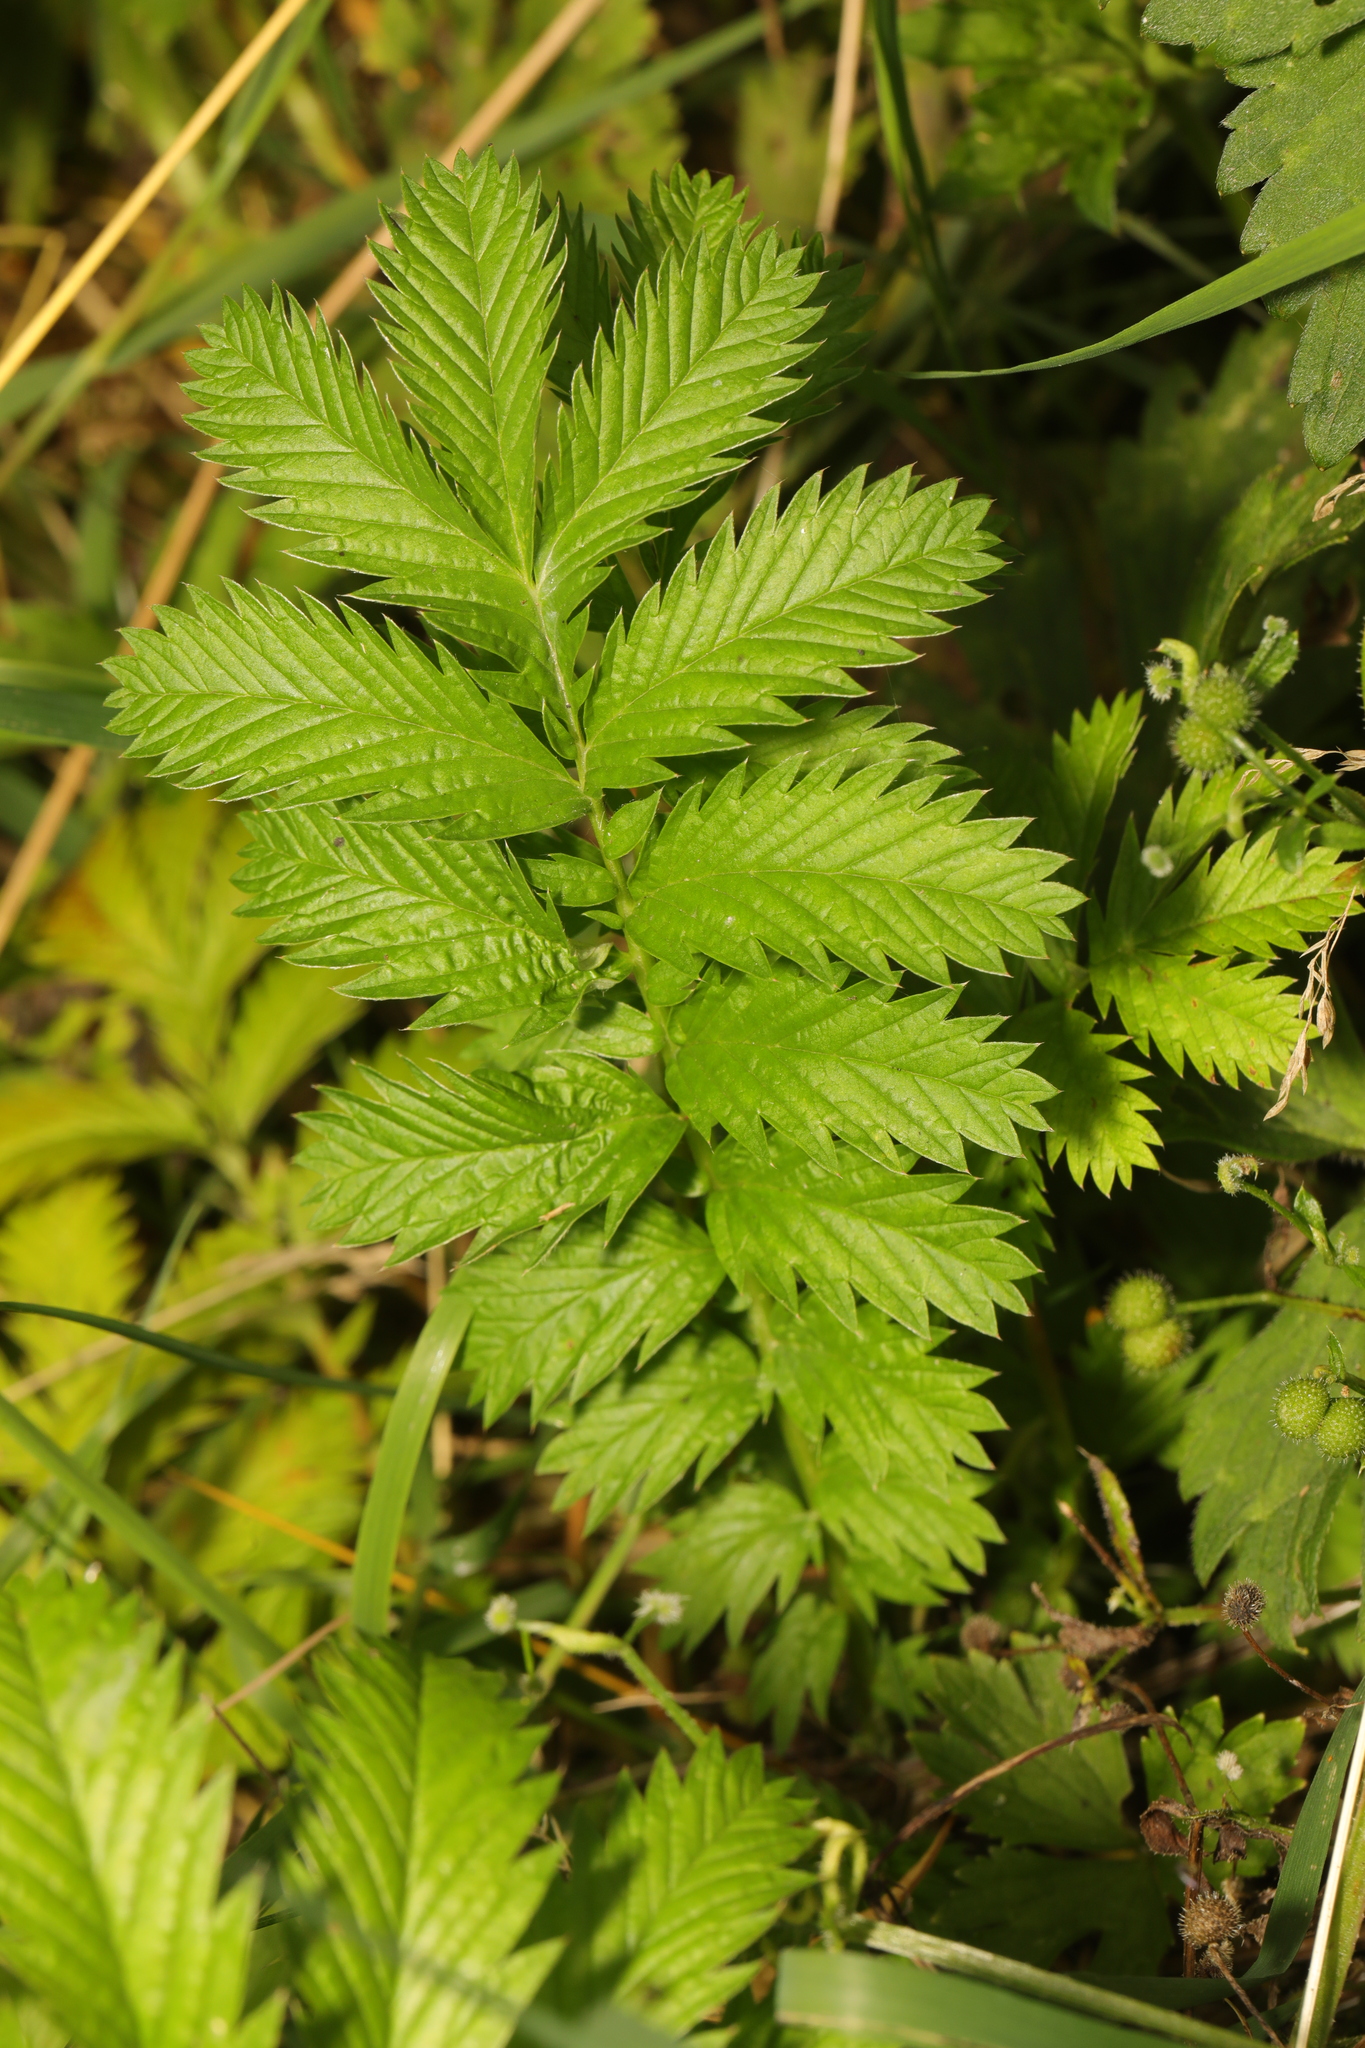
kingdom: Plantae
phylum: Tracheophyta
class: Magnoliopsida
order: Rosales
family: Rosaceae
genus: Argentina
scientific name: Argentina anserina
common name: Common silverweed
